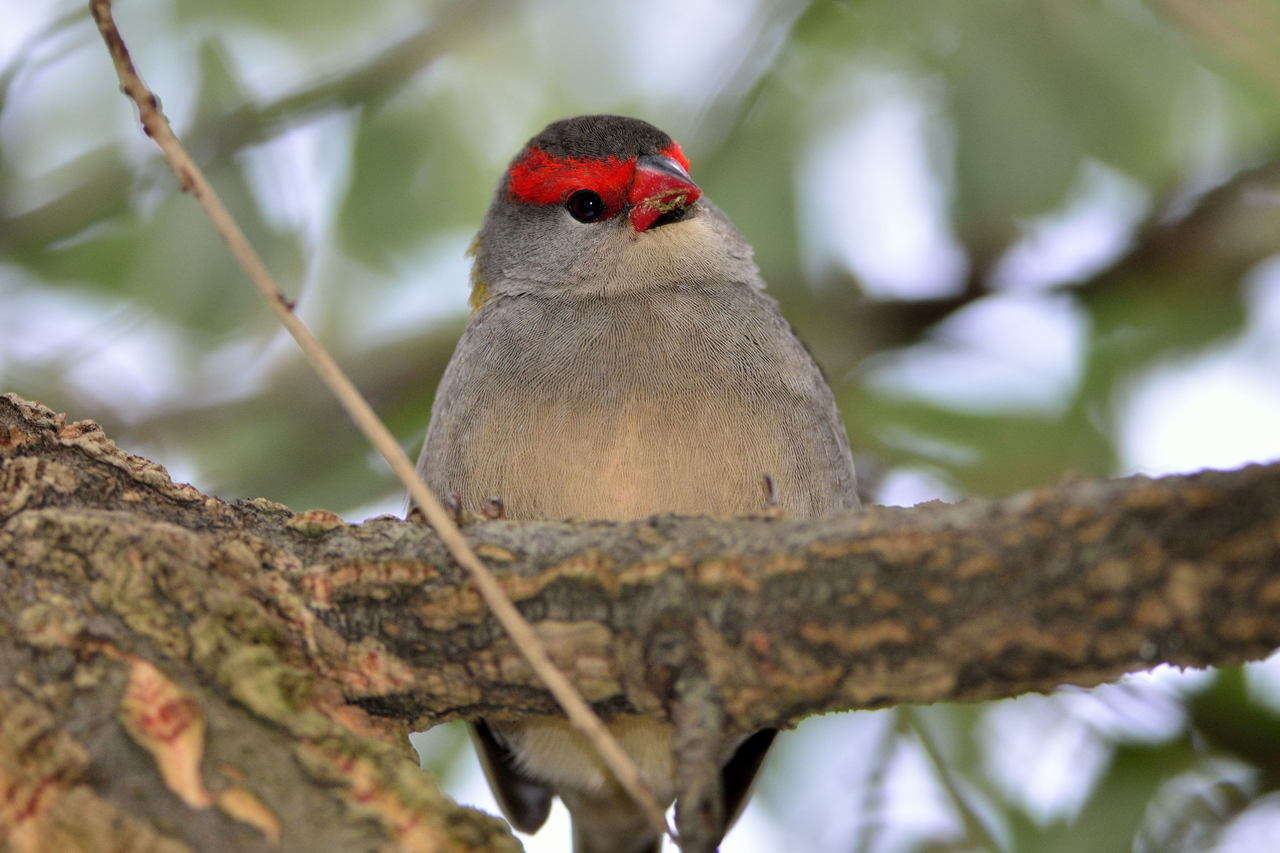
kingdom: Animalia
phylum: Chordata
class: Aves
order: Passeriformes
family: Estrildidae
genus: Neochmia
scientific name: Neochmia temporalis
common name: Red-browed finch
